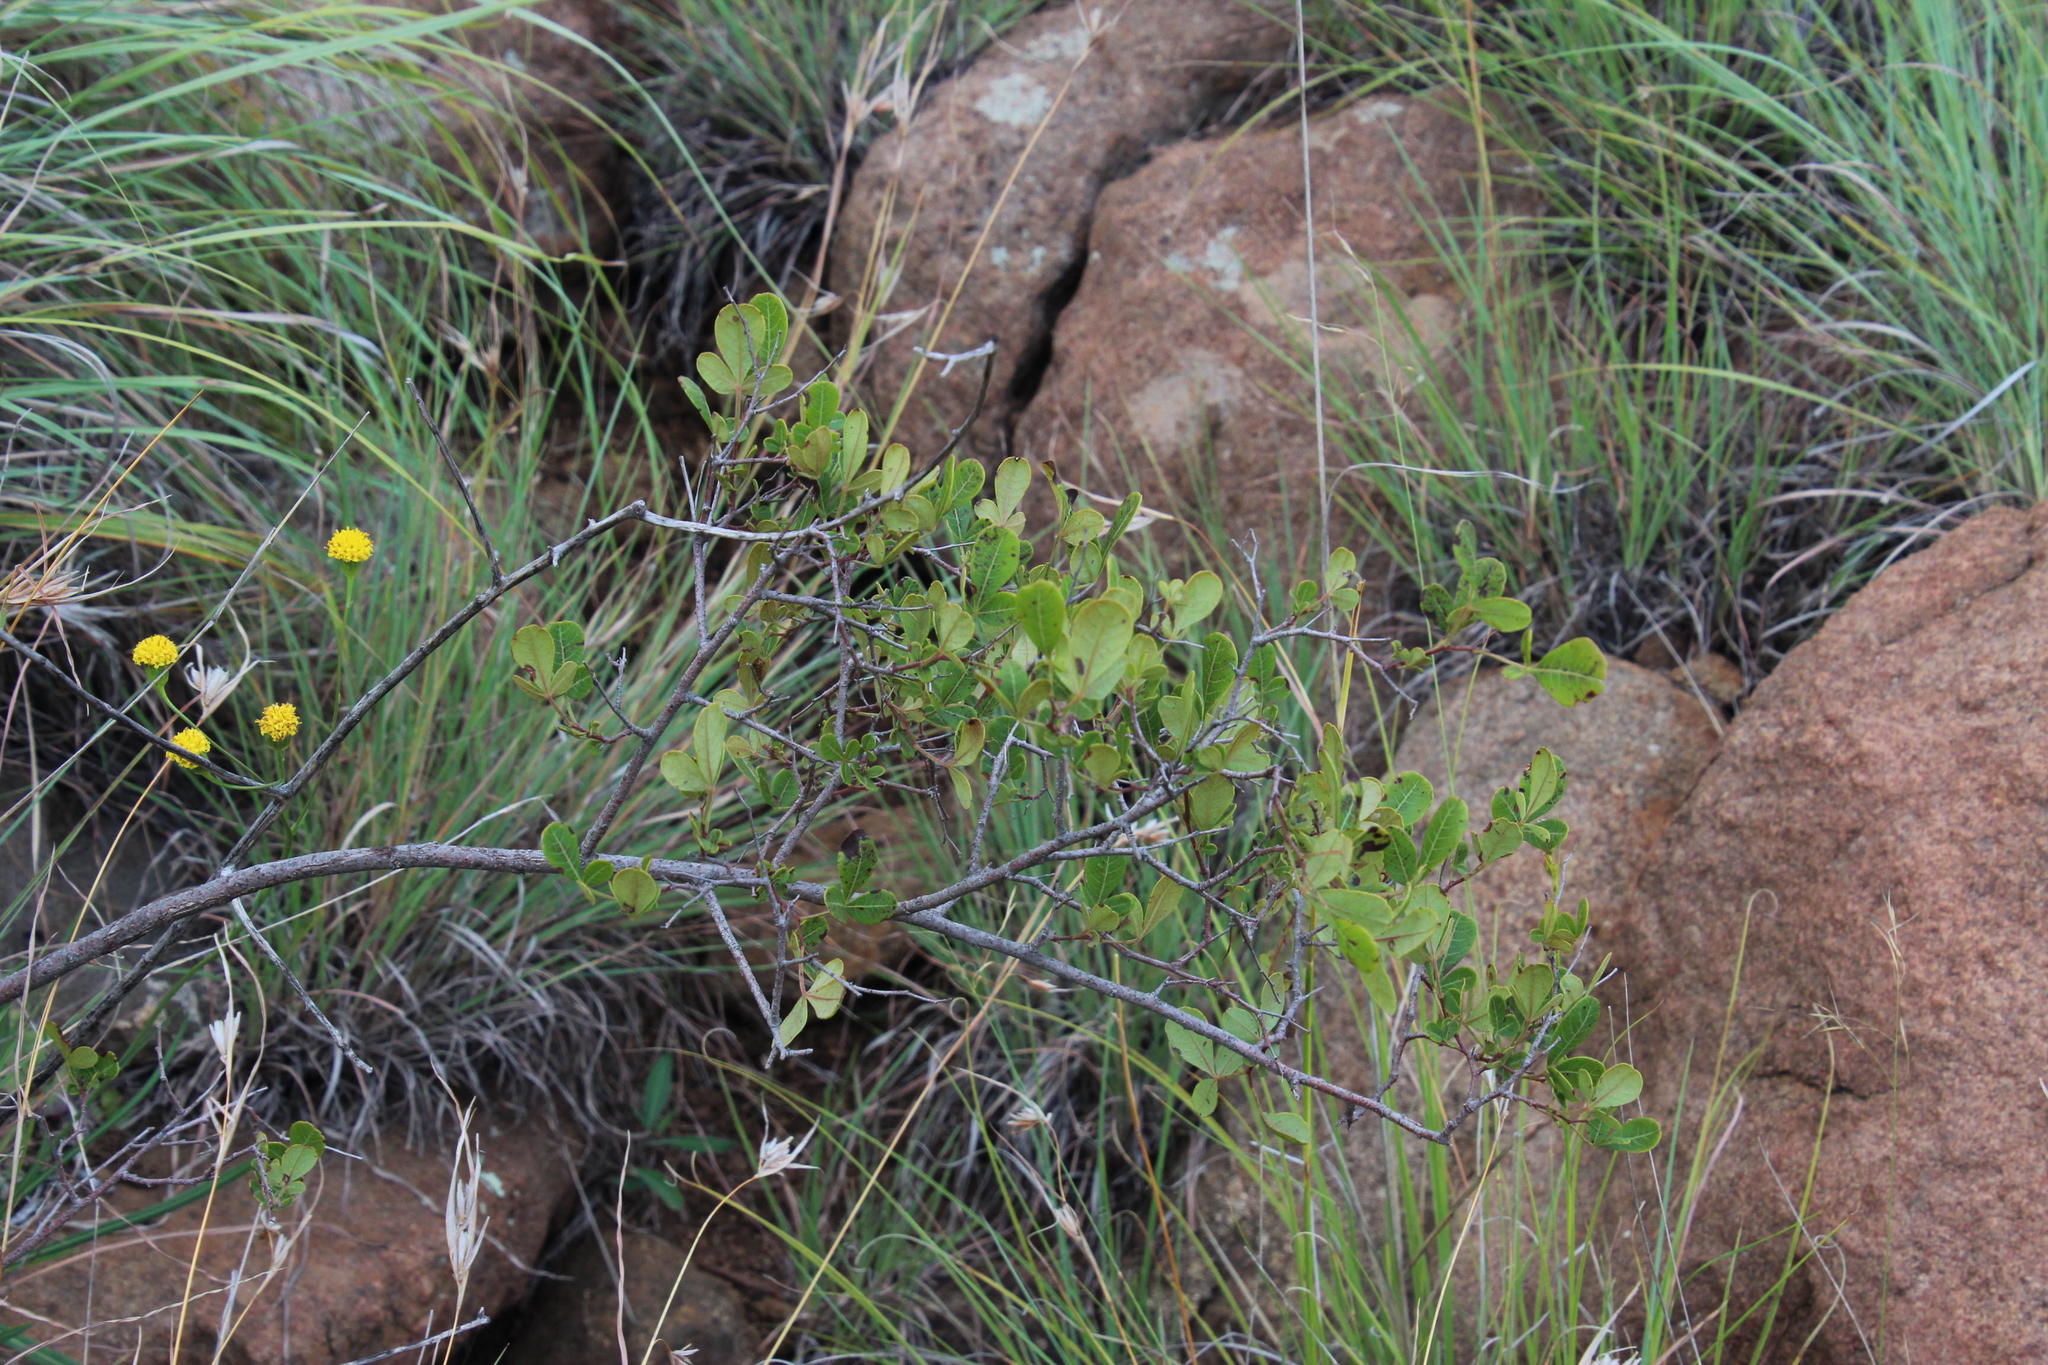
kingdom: Plantae
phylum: Tracheophyta
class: Magnoliopsida
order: Sapindales
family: Anacardiaceae
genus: Searsia
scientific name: Searsia divaricata
